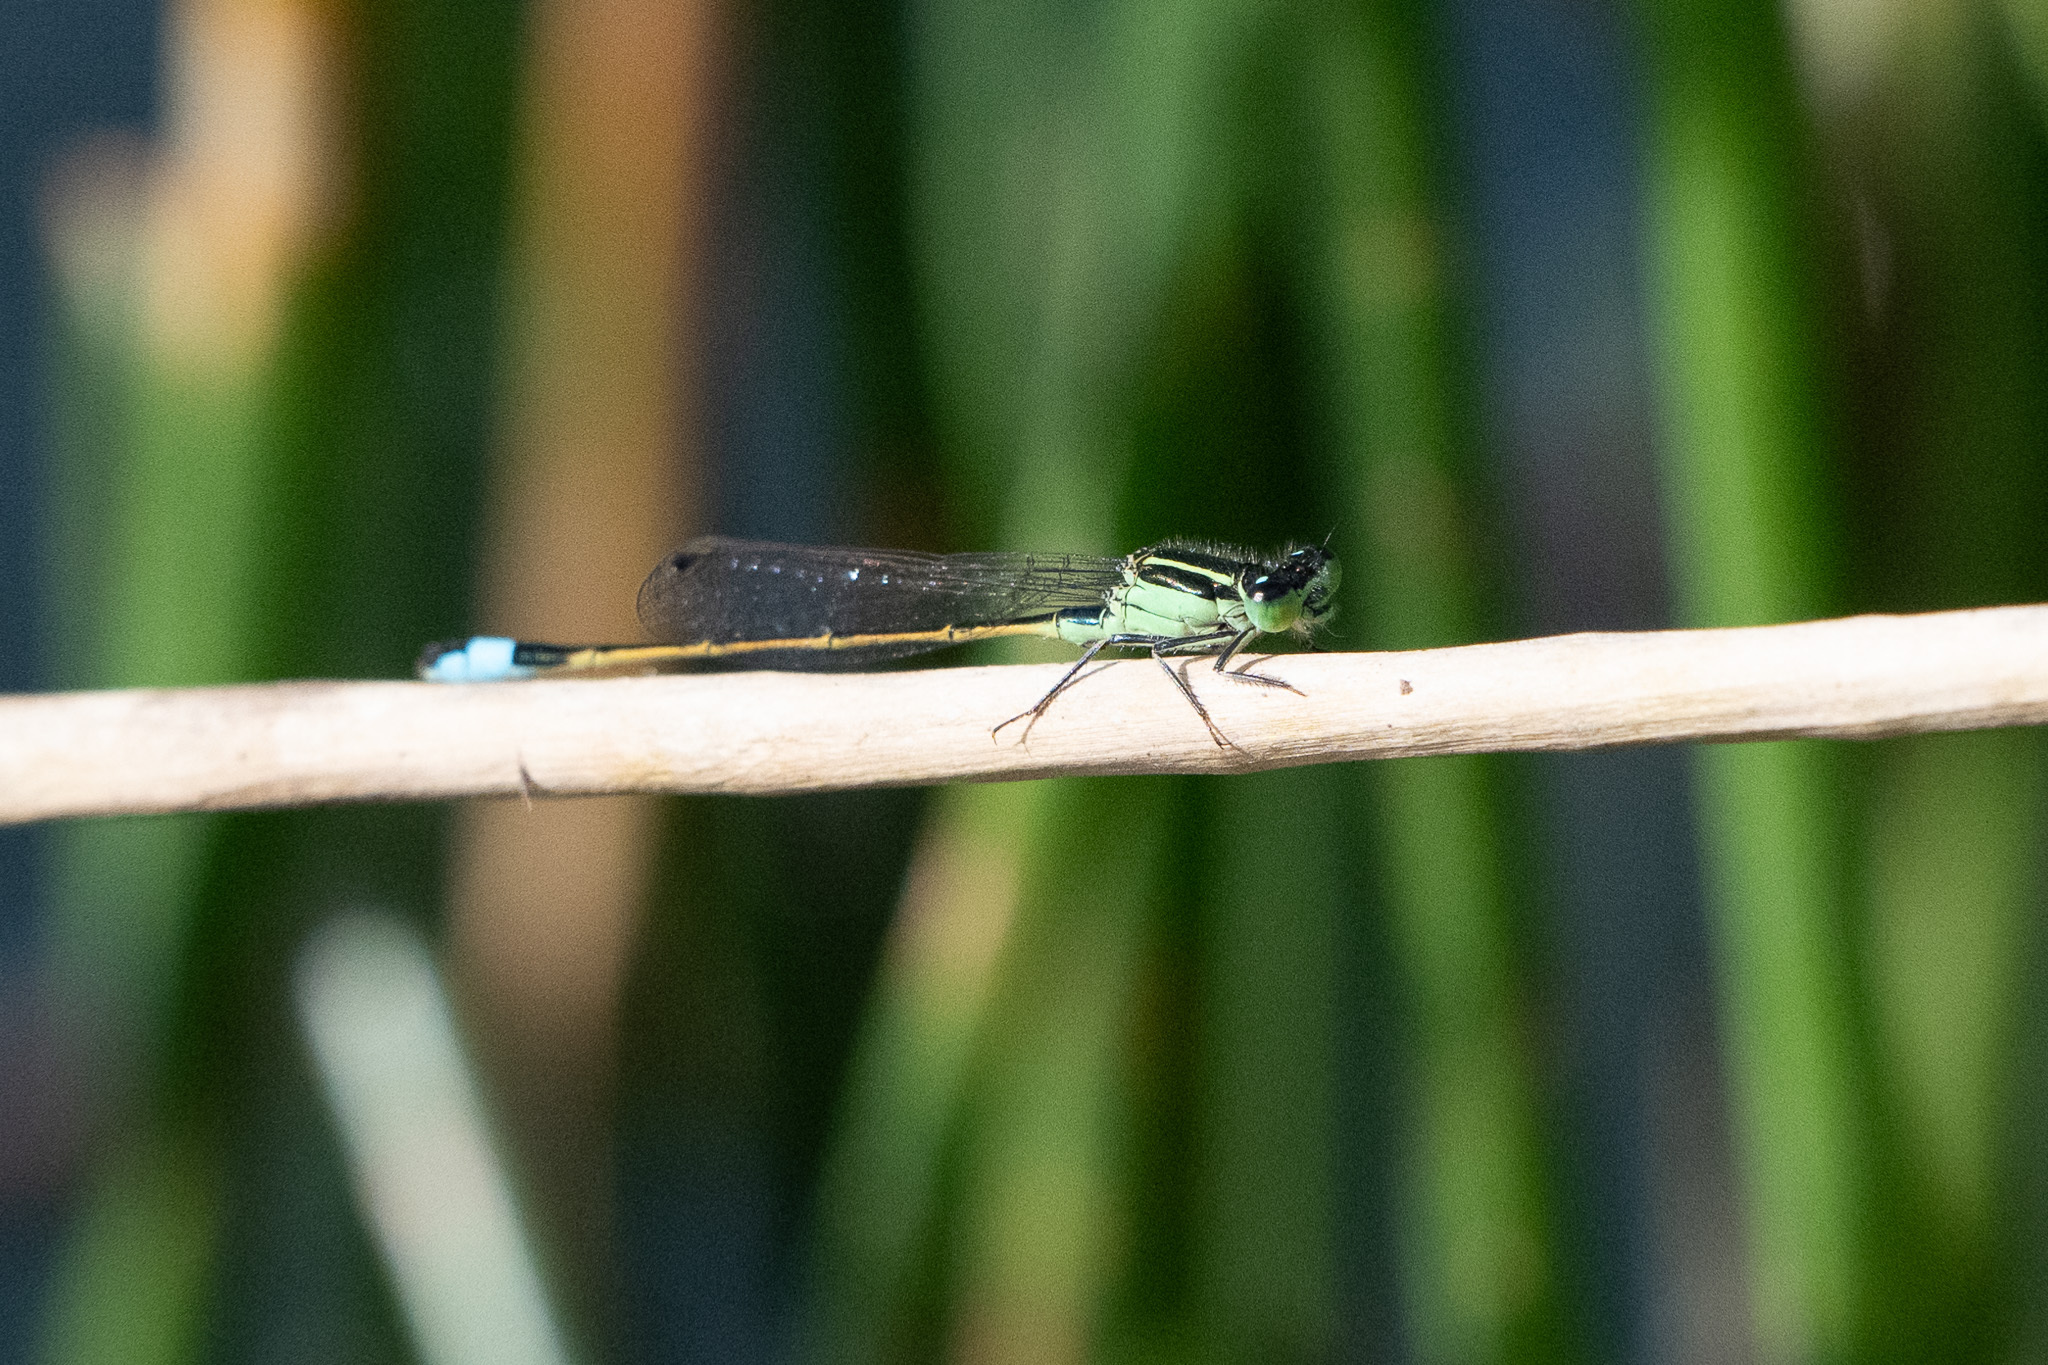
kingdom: Animalia
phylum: Arthropoda
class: Insecta
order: Odonata
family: Coenagrionidae
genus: Ischnura
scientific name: Ischnura ramburii
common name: Rambur's forktail
